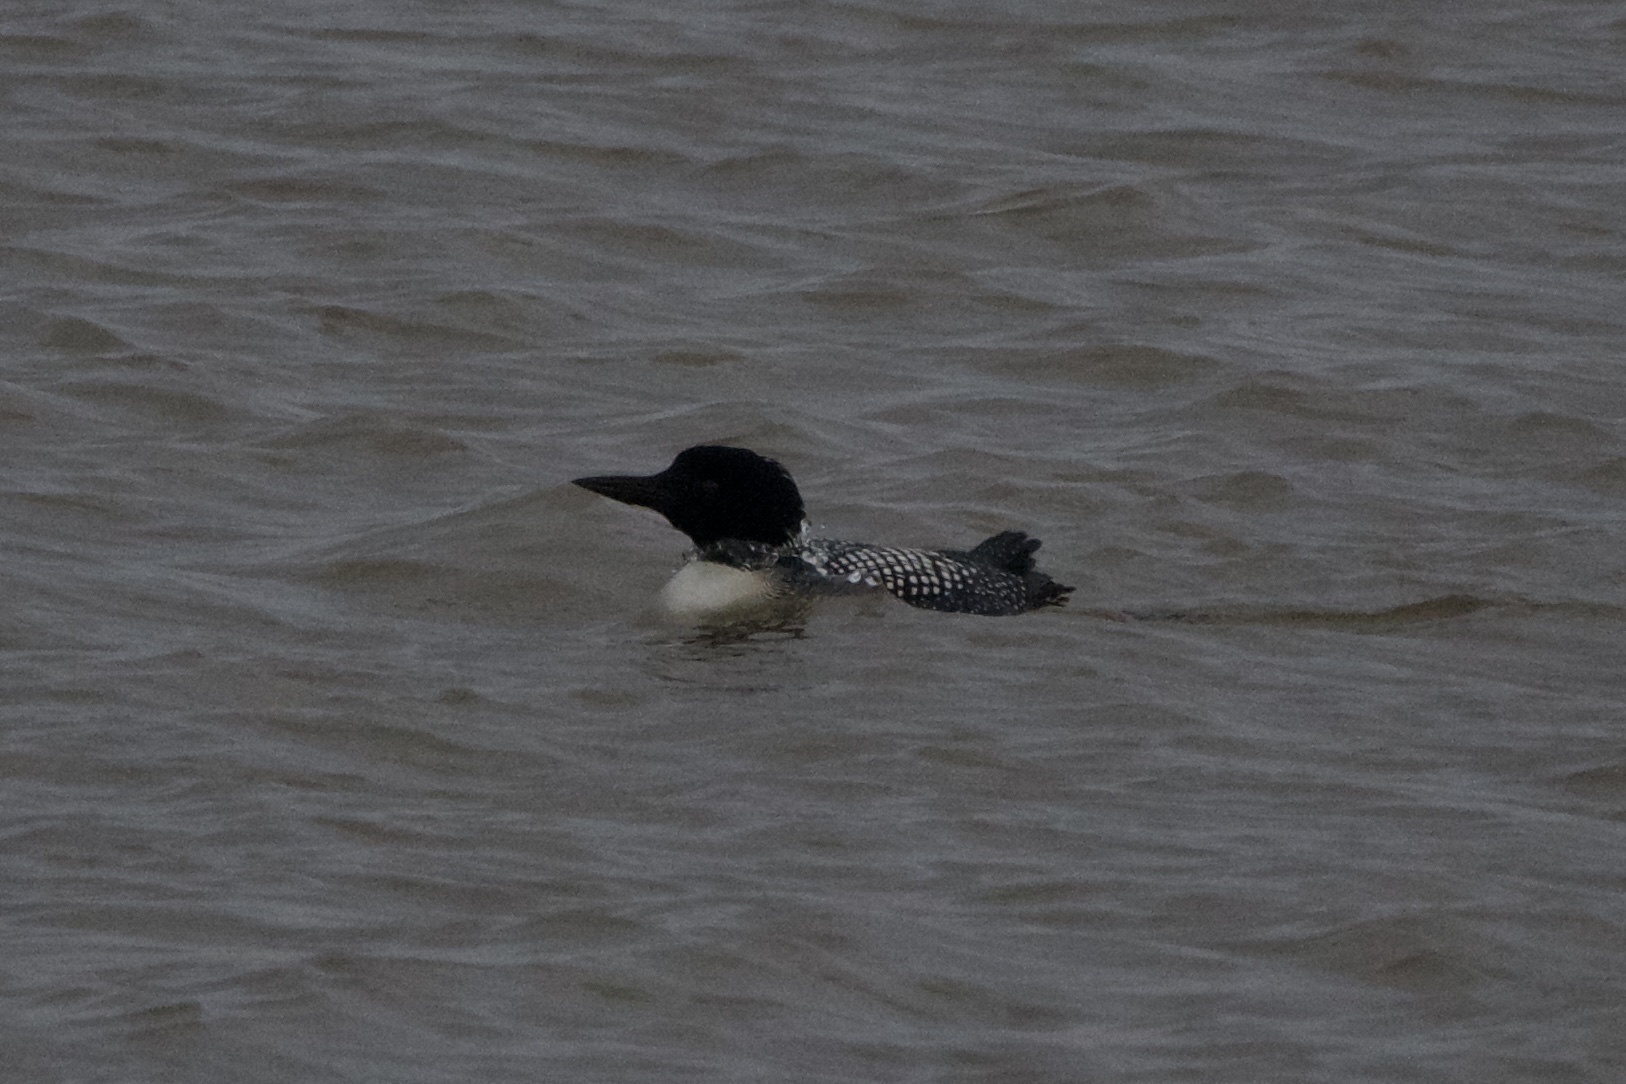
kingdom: Animalia
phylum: Chordata
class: Aves
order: Gaviiformes
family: Gaviidae
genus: Gavia
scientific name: Gavia immer
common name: Common loon
